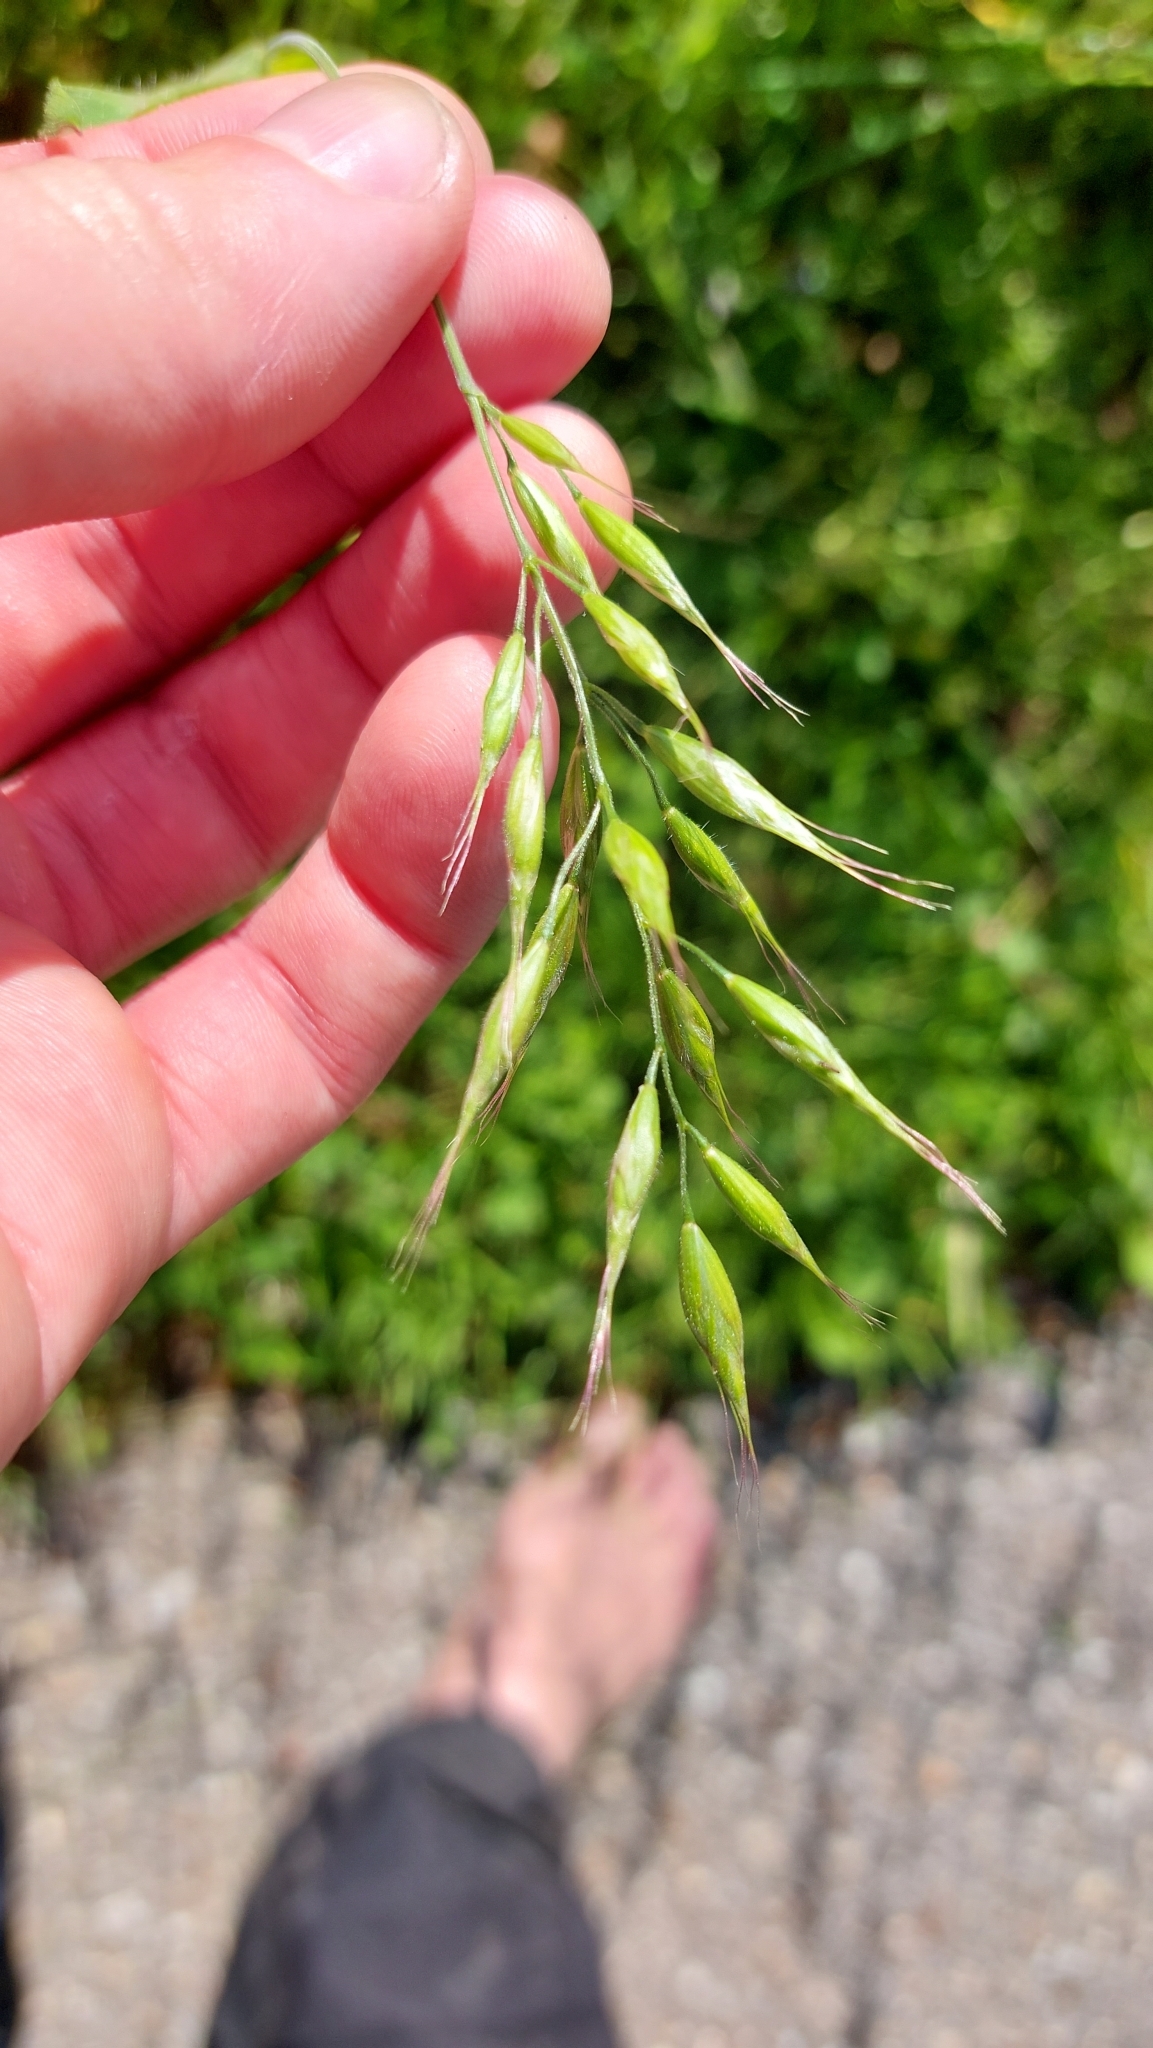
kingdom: Plantae
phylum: Tracheophyta
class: Liliopsida
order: Poales
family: Poaceae
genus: Bromus
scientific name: Bromus hordeaceus
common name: Soft brome
